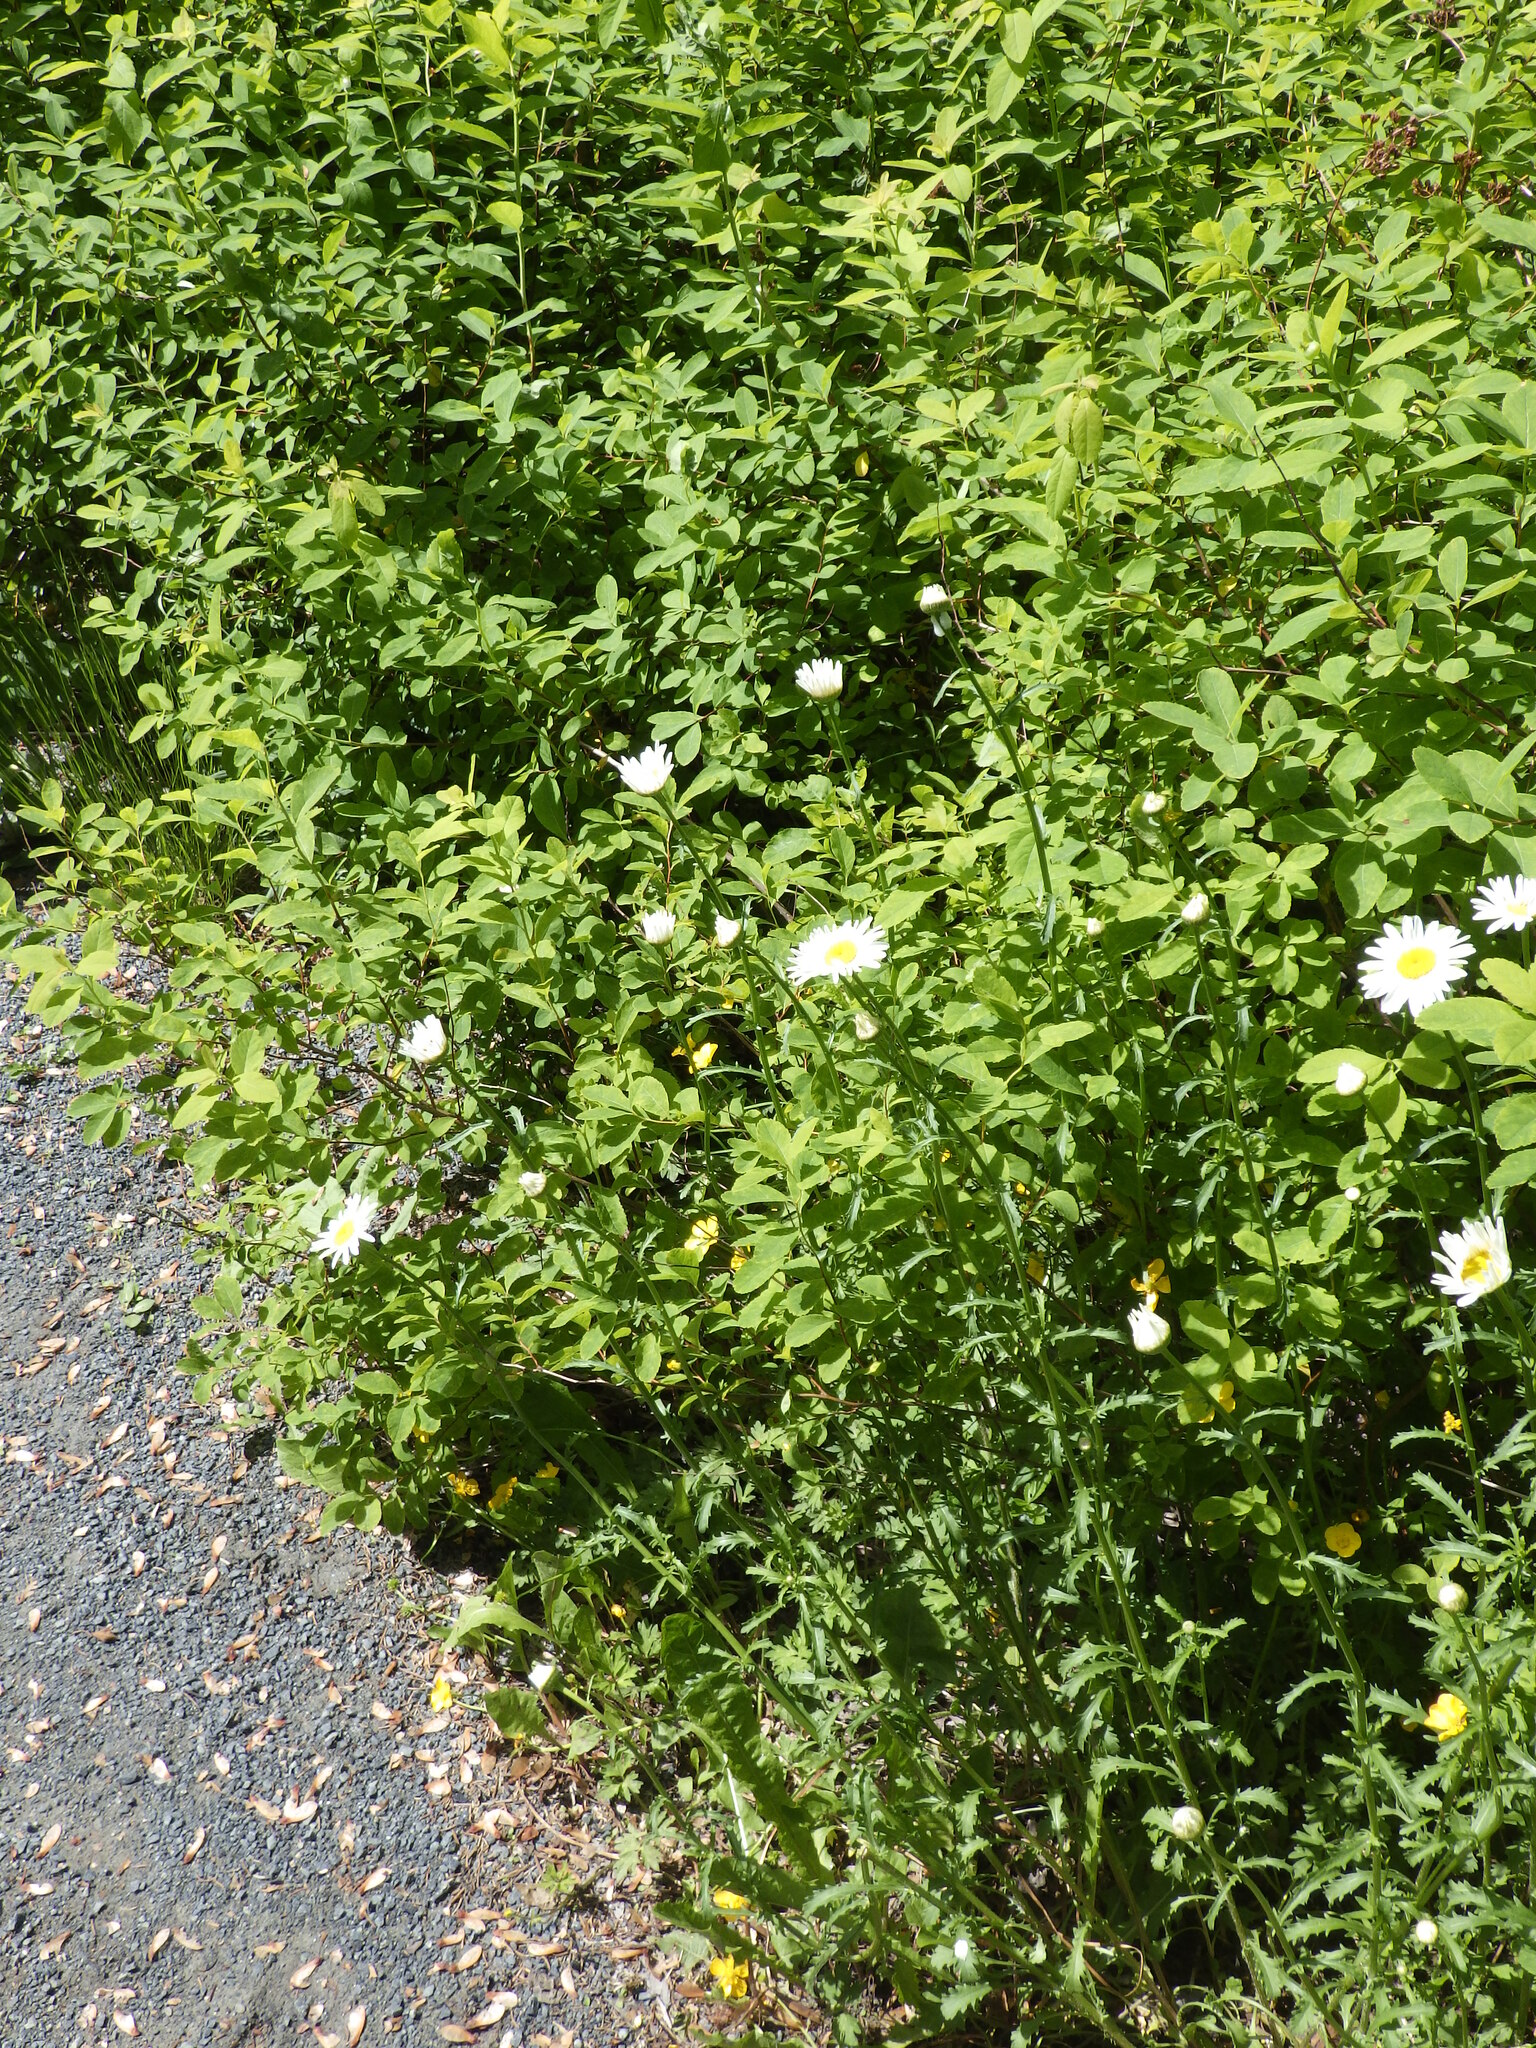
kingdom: Plantae
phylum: Tracheophyta
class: Magnoliopsida
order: Asterales
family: Asteraceae
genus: Leucanthemum
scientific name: Leucanthemum vulgare
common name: Oxeye daisy
